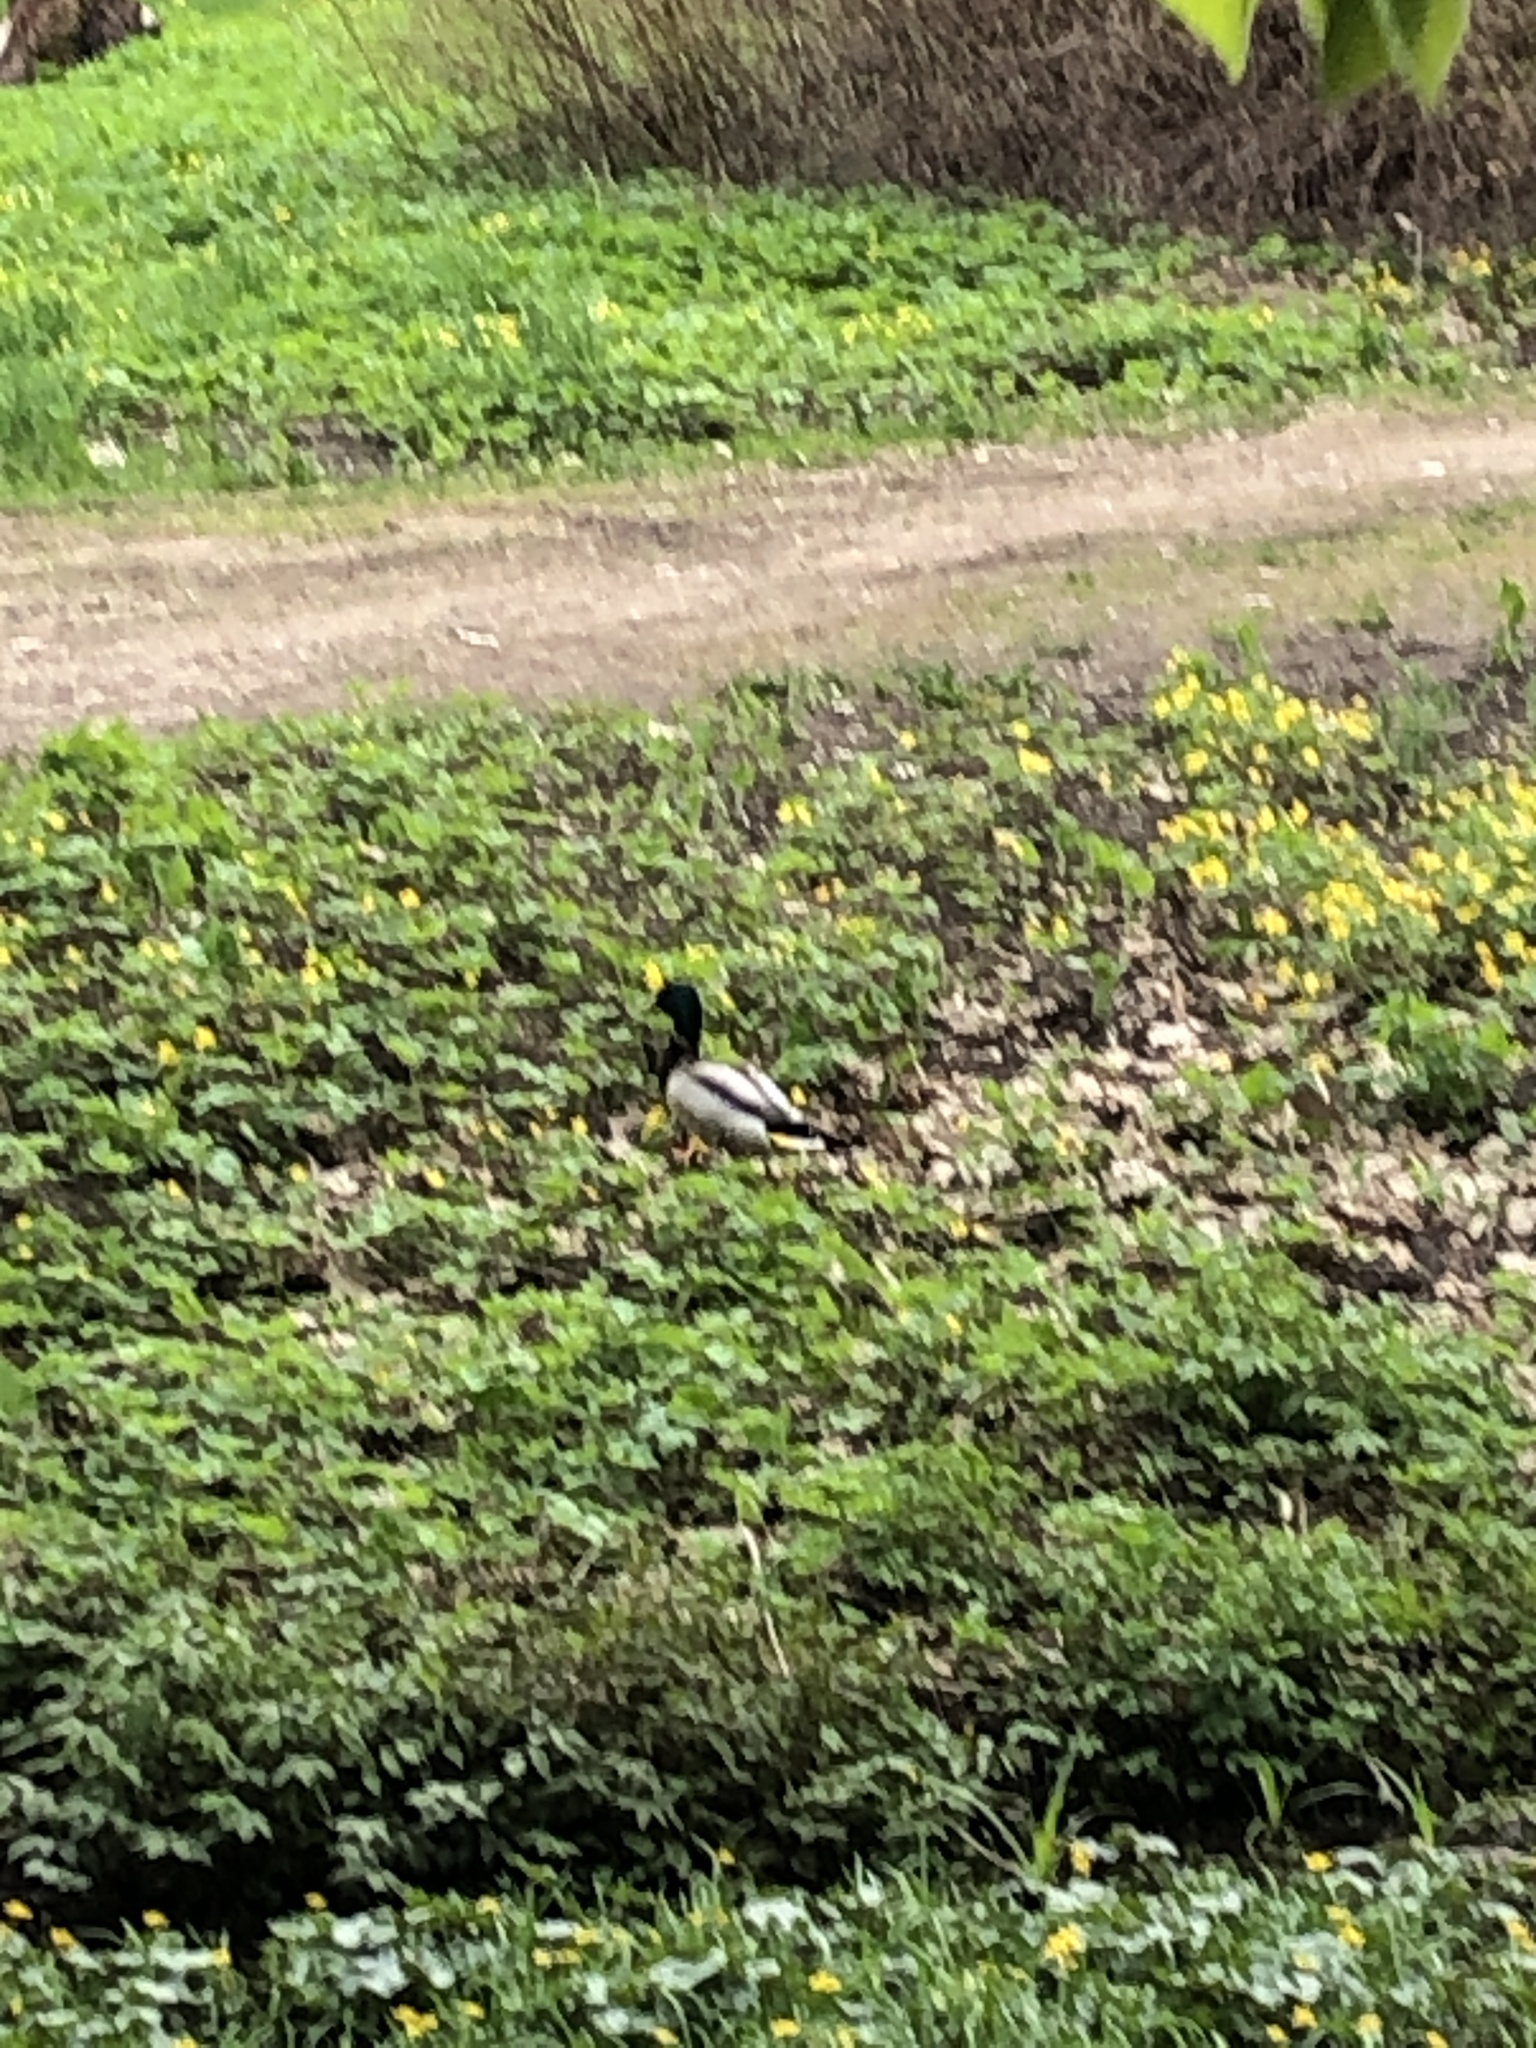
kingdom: Animalia
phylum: Chordata
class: Aves
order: Anseriformes
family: Anatidae
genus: Anas
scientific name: Anas platyrhynchos
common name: Mallard
